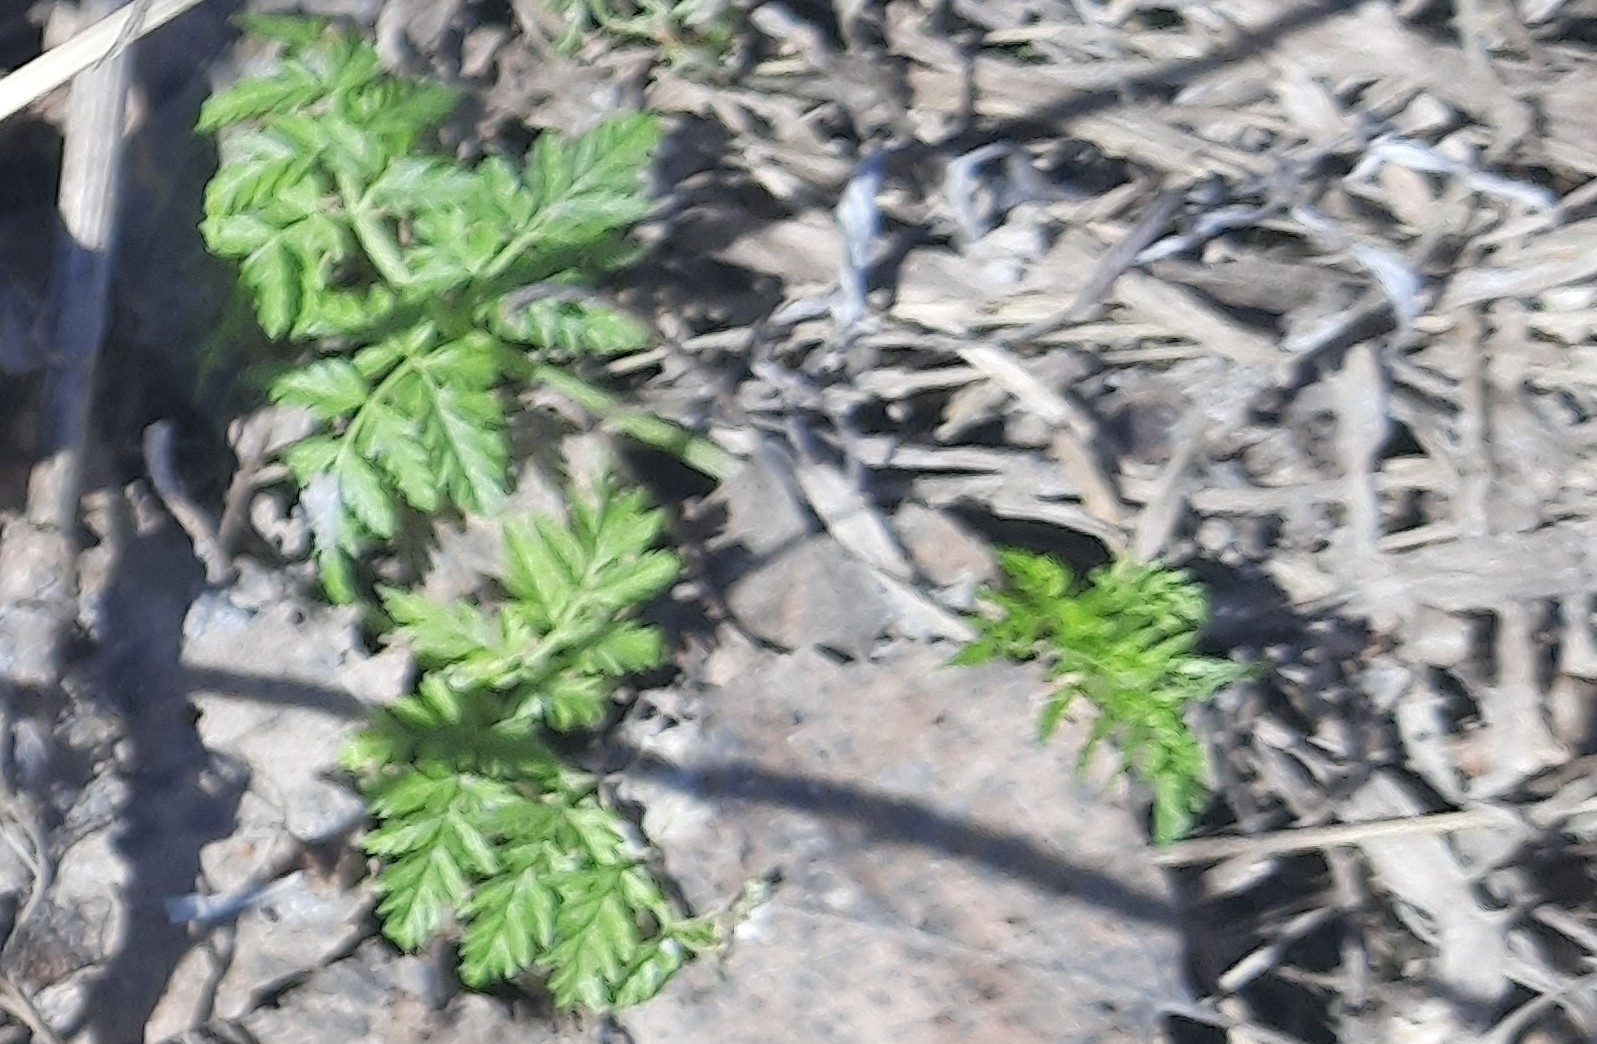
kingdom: Plantae
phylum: Tracheophyta
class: Magnoliopsida
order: Apiales
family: Apiaceae
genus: Anthriscus
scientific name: Anthriscus sylvestris
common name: Cow parsley
